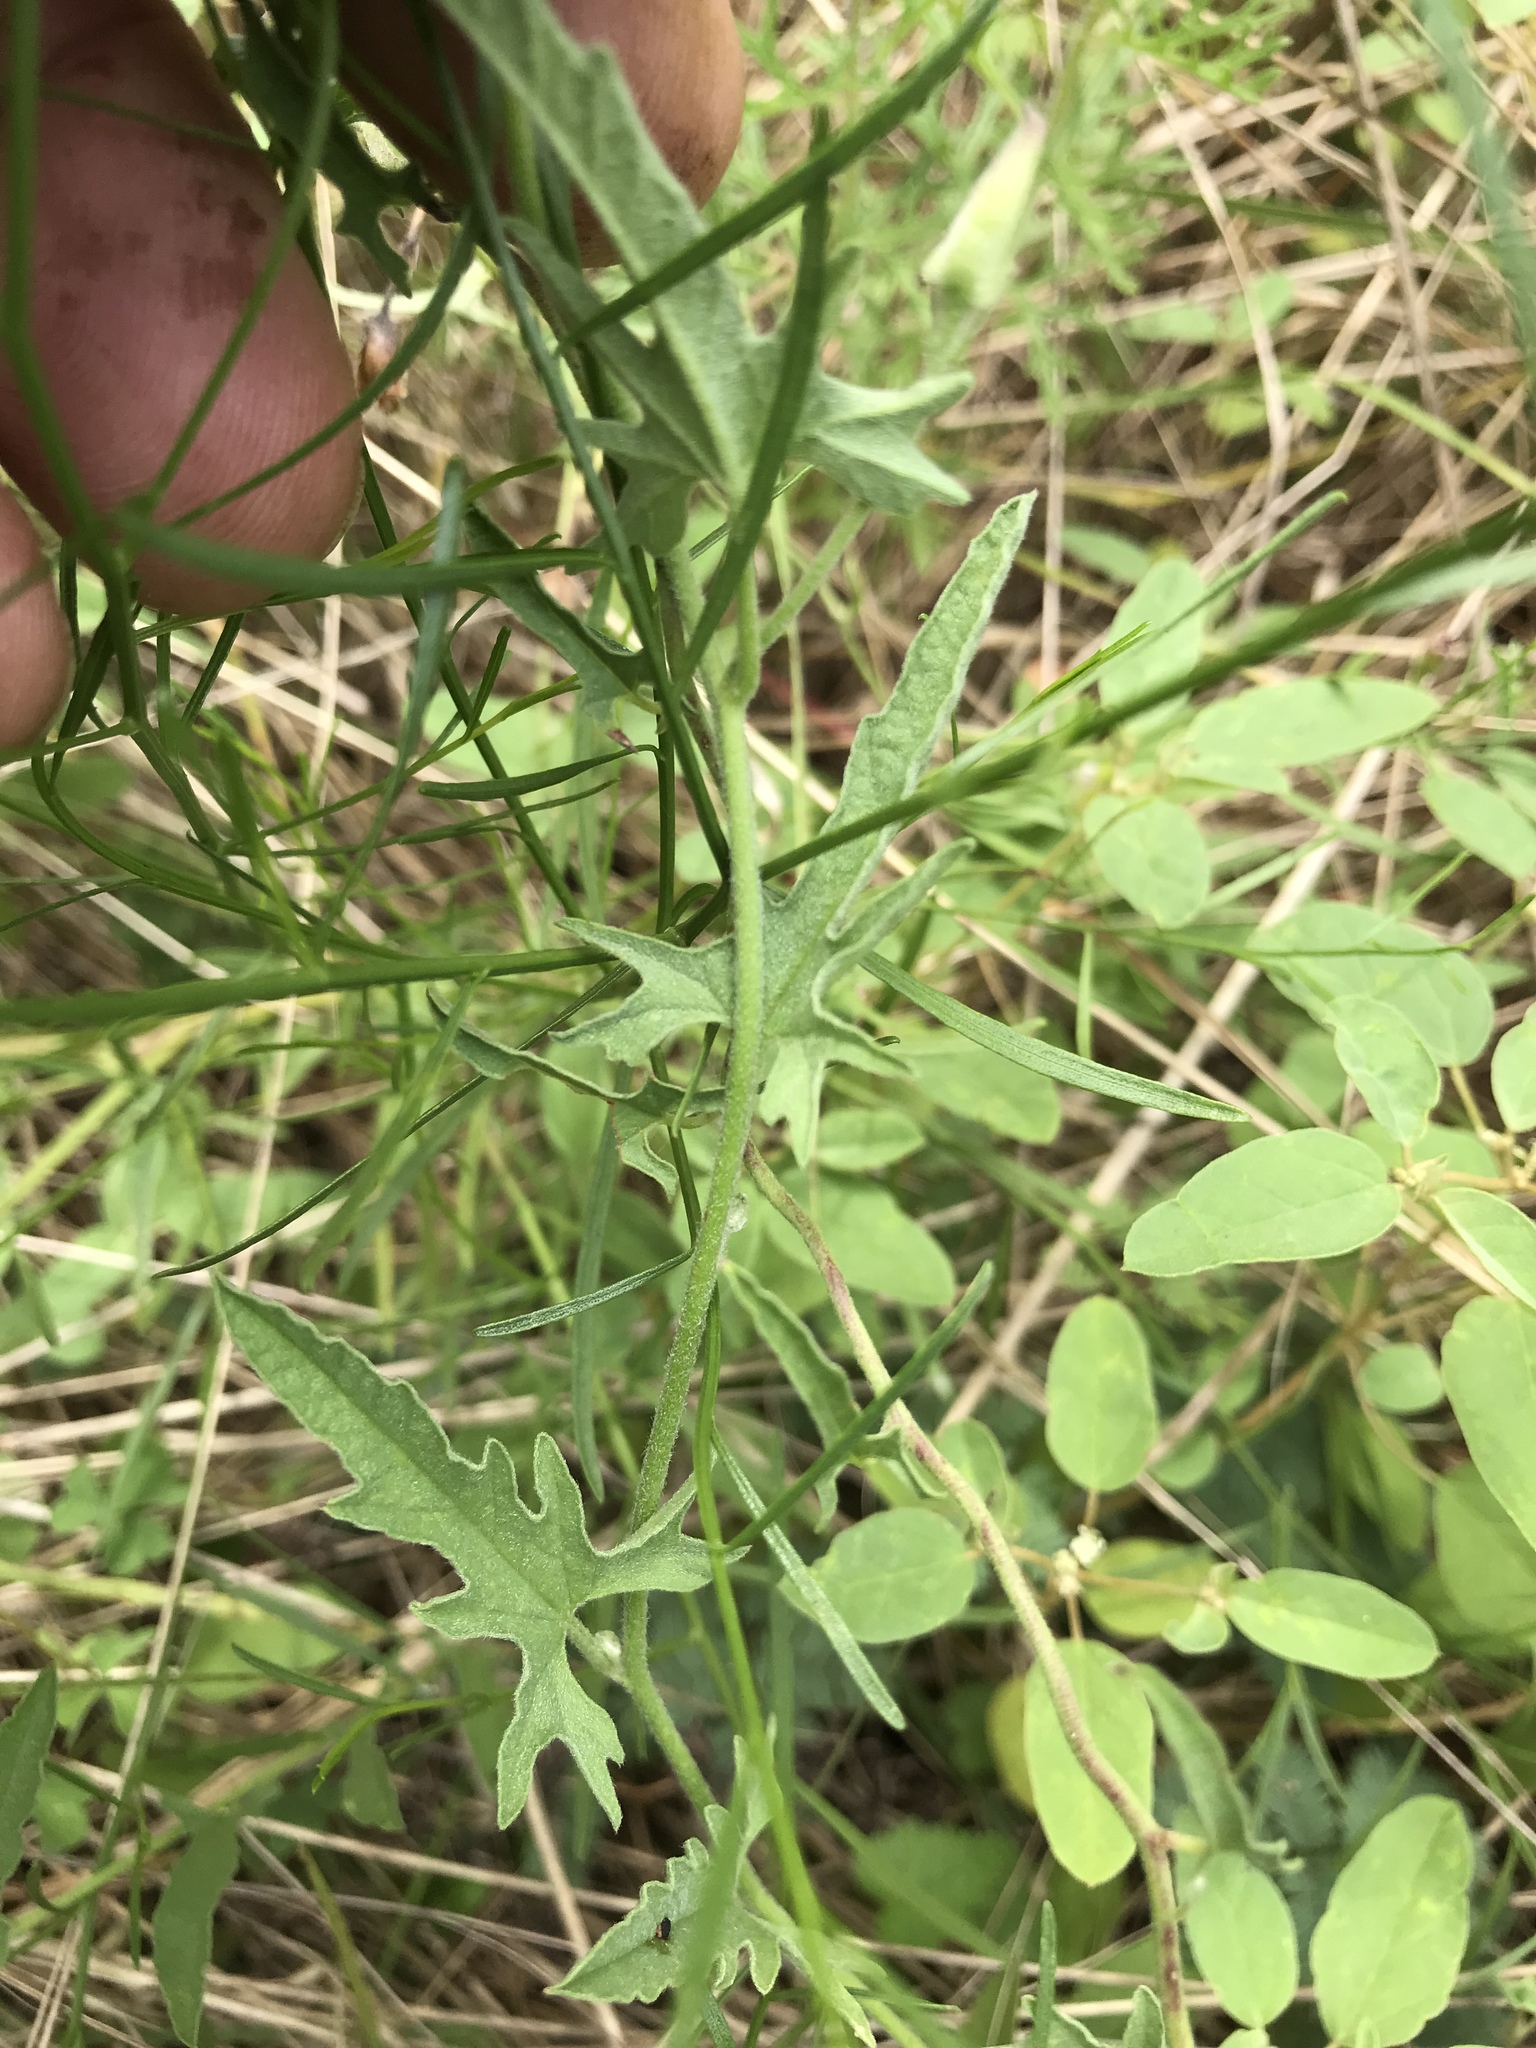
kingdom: Plantae
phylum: Tracheophyta
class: Magnoliopsida
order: Solanales
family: Convolvulaceae
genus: Convolvulus
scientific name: Convolvulus equitans
